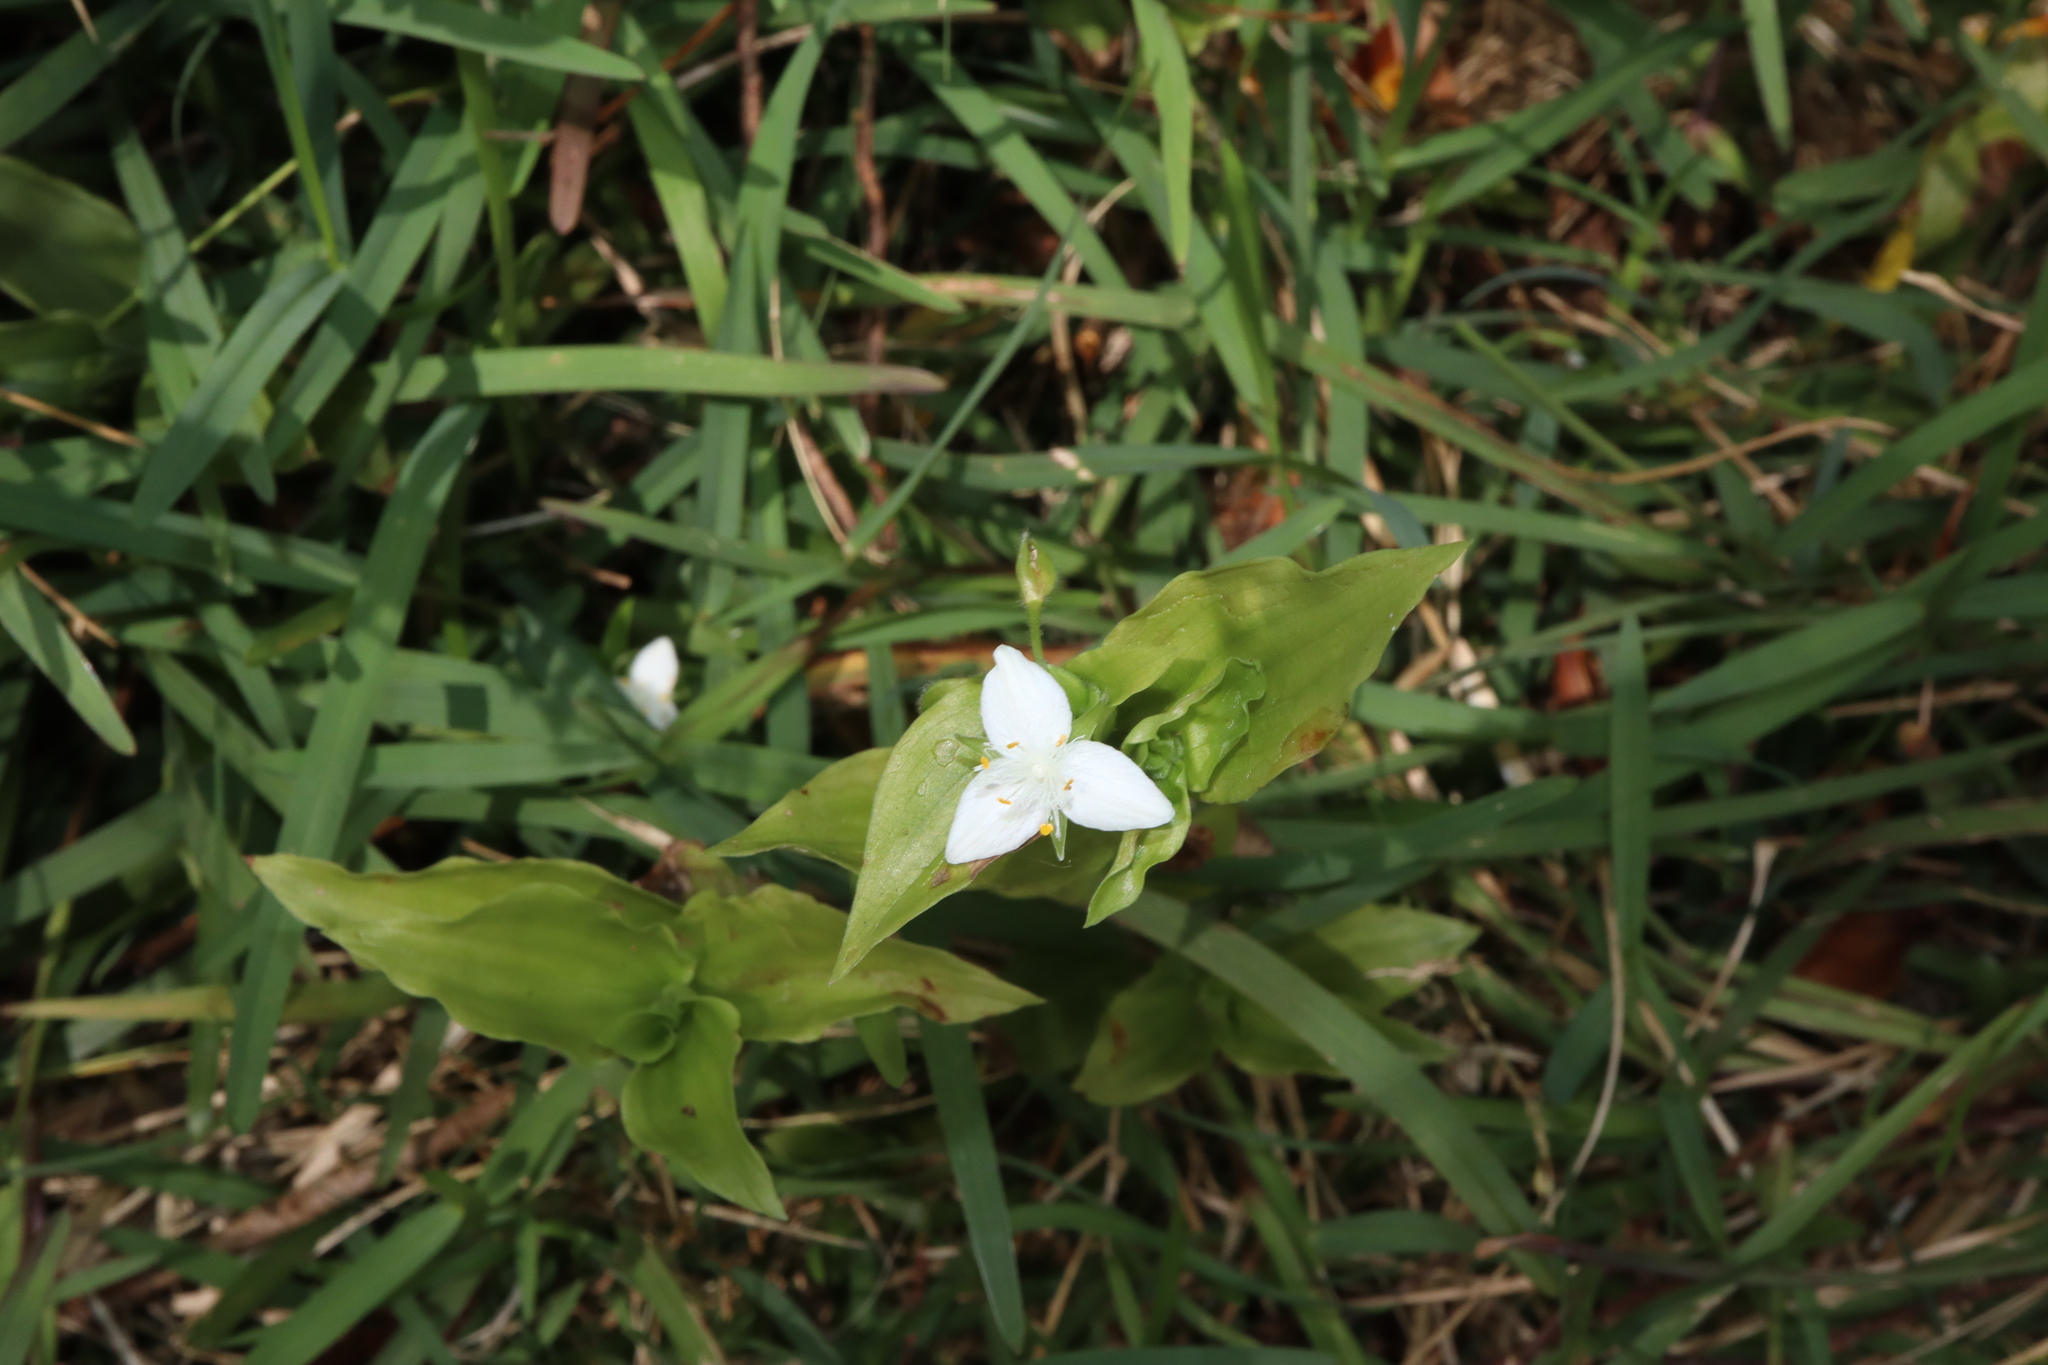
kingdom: Plantae
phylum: Tracheophyta
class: Liliopsida
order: Commelinales
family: Commelinaceae
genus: Tradescantia
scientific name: Tradescantia fluminensis
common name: Wandering-jew
